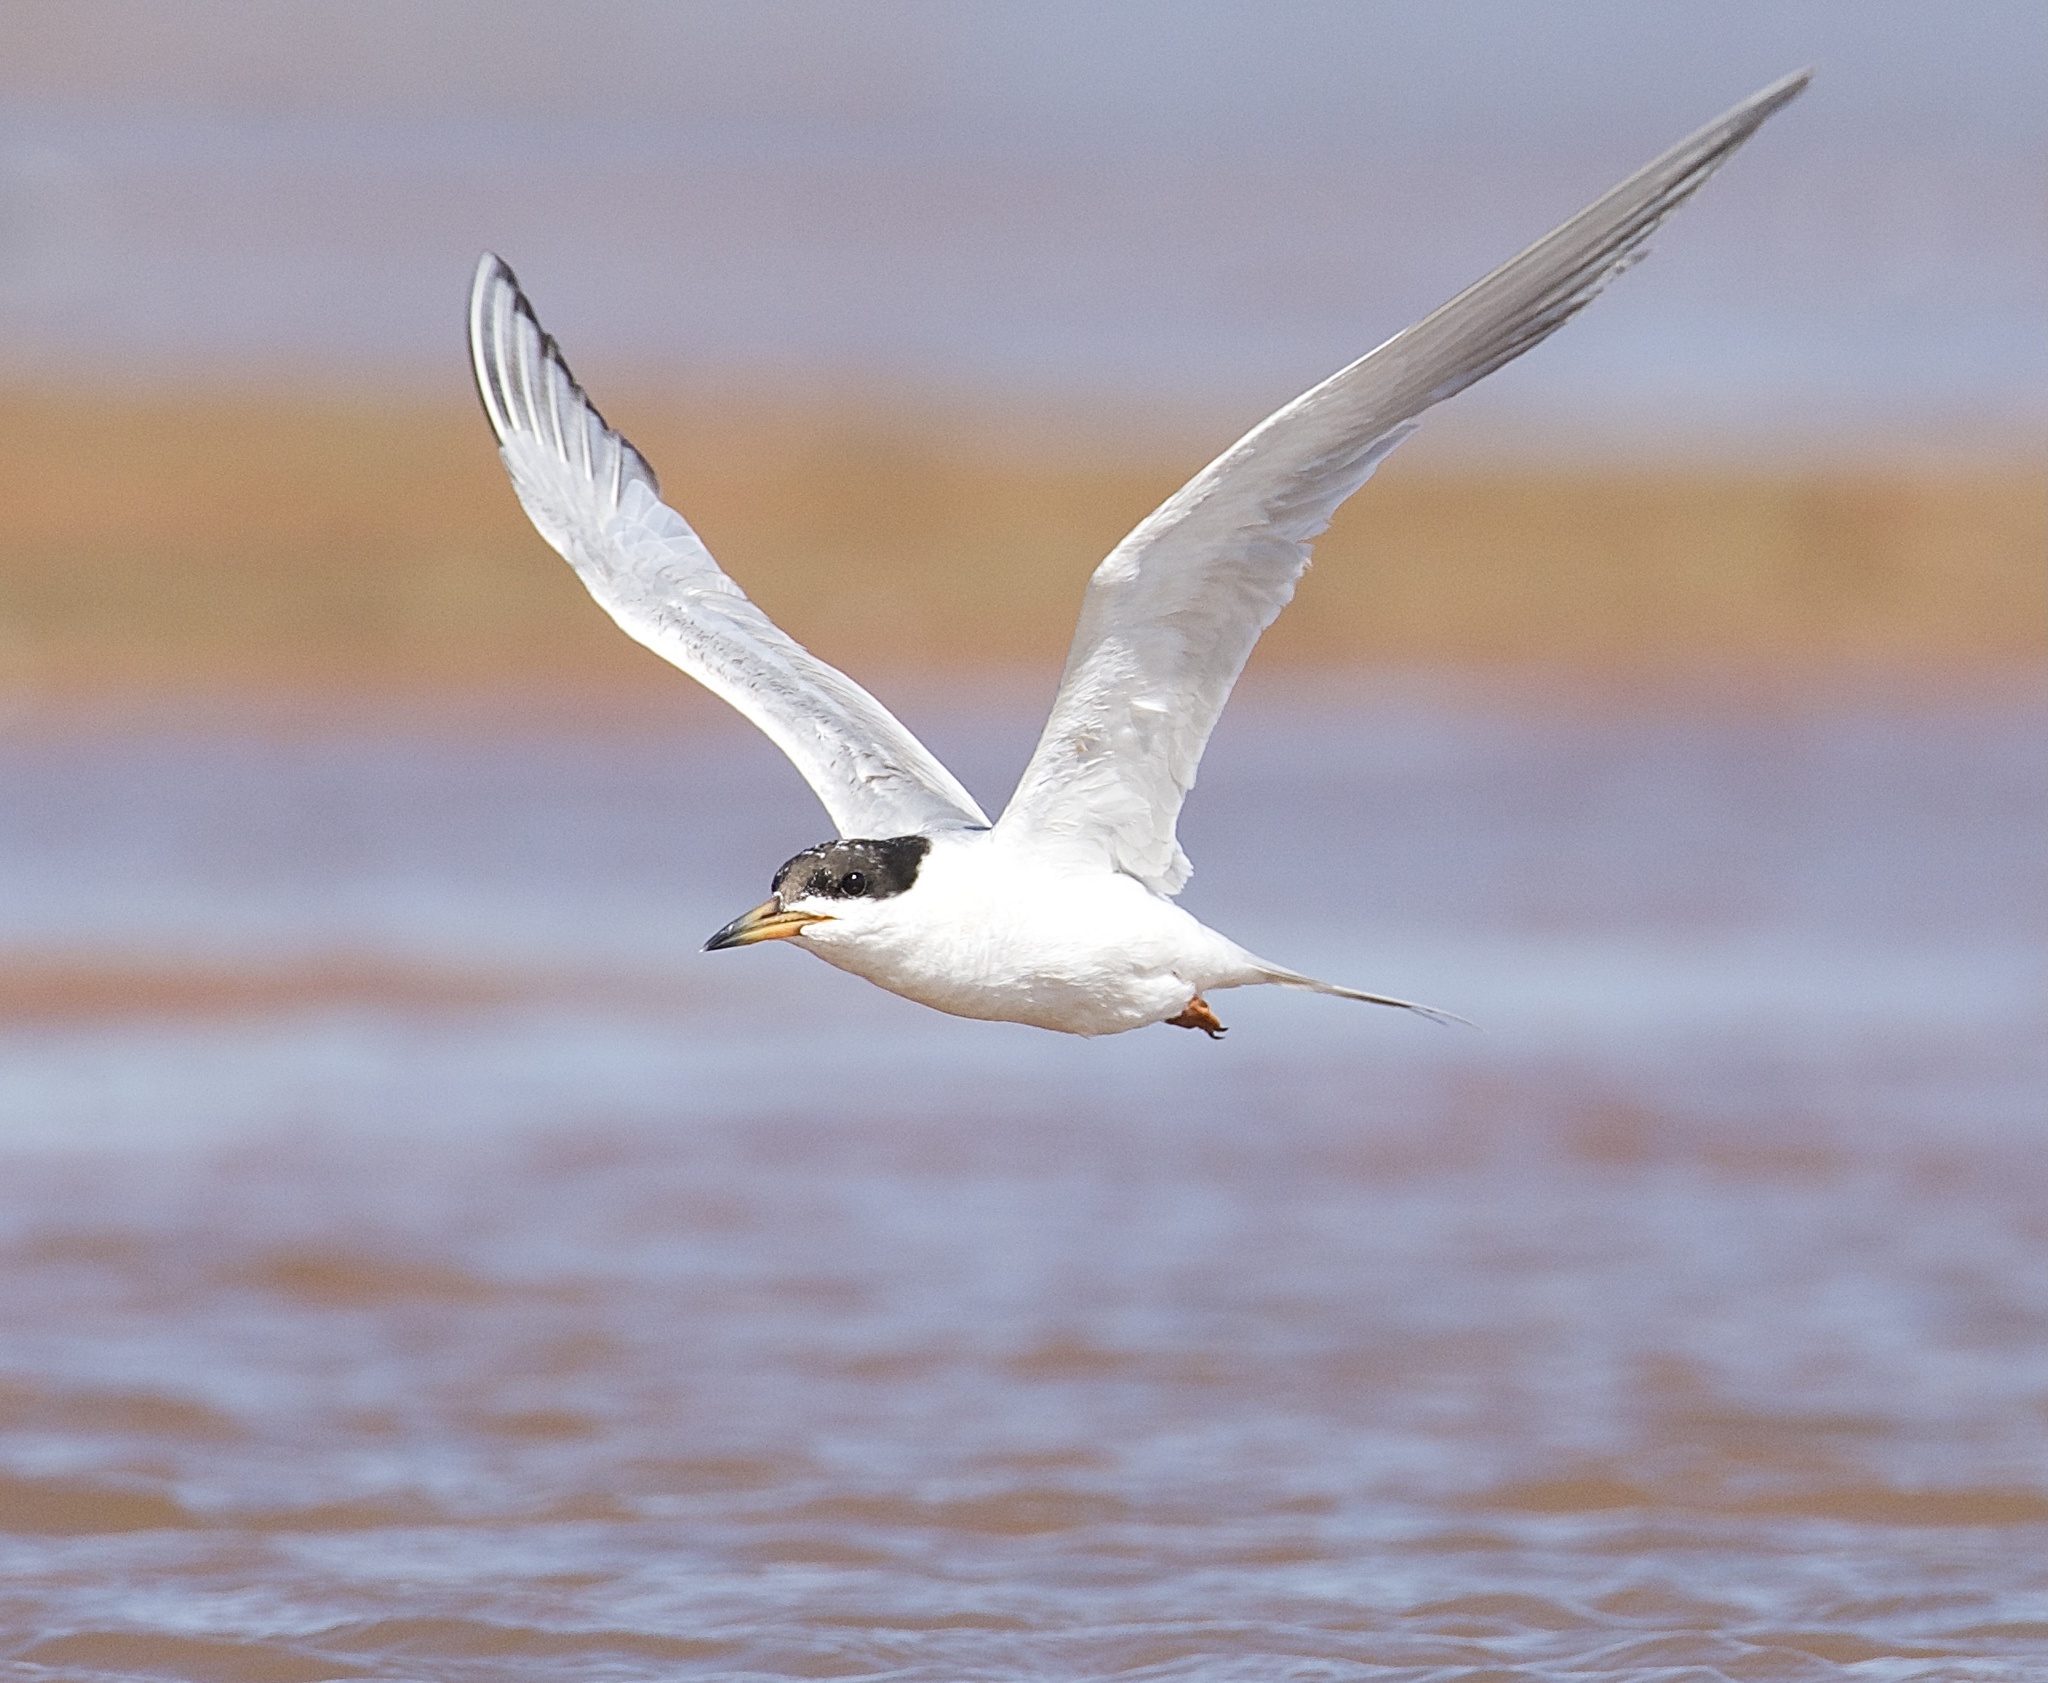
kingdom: Animalia
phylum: Chordata
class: Aves
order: Charadriiformes
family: Laridae
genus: Sterna
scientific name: Sterna forsteri
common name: Forster's tern
